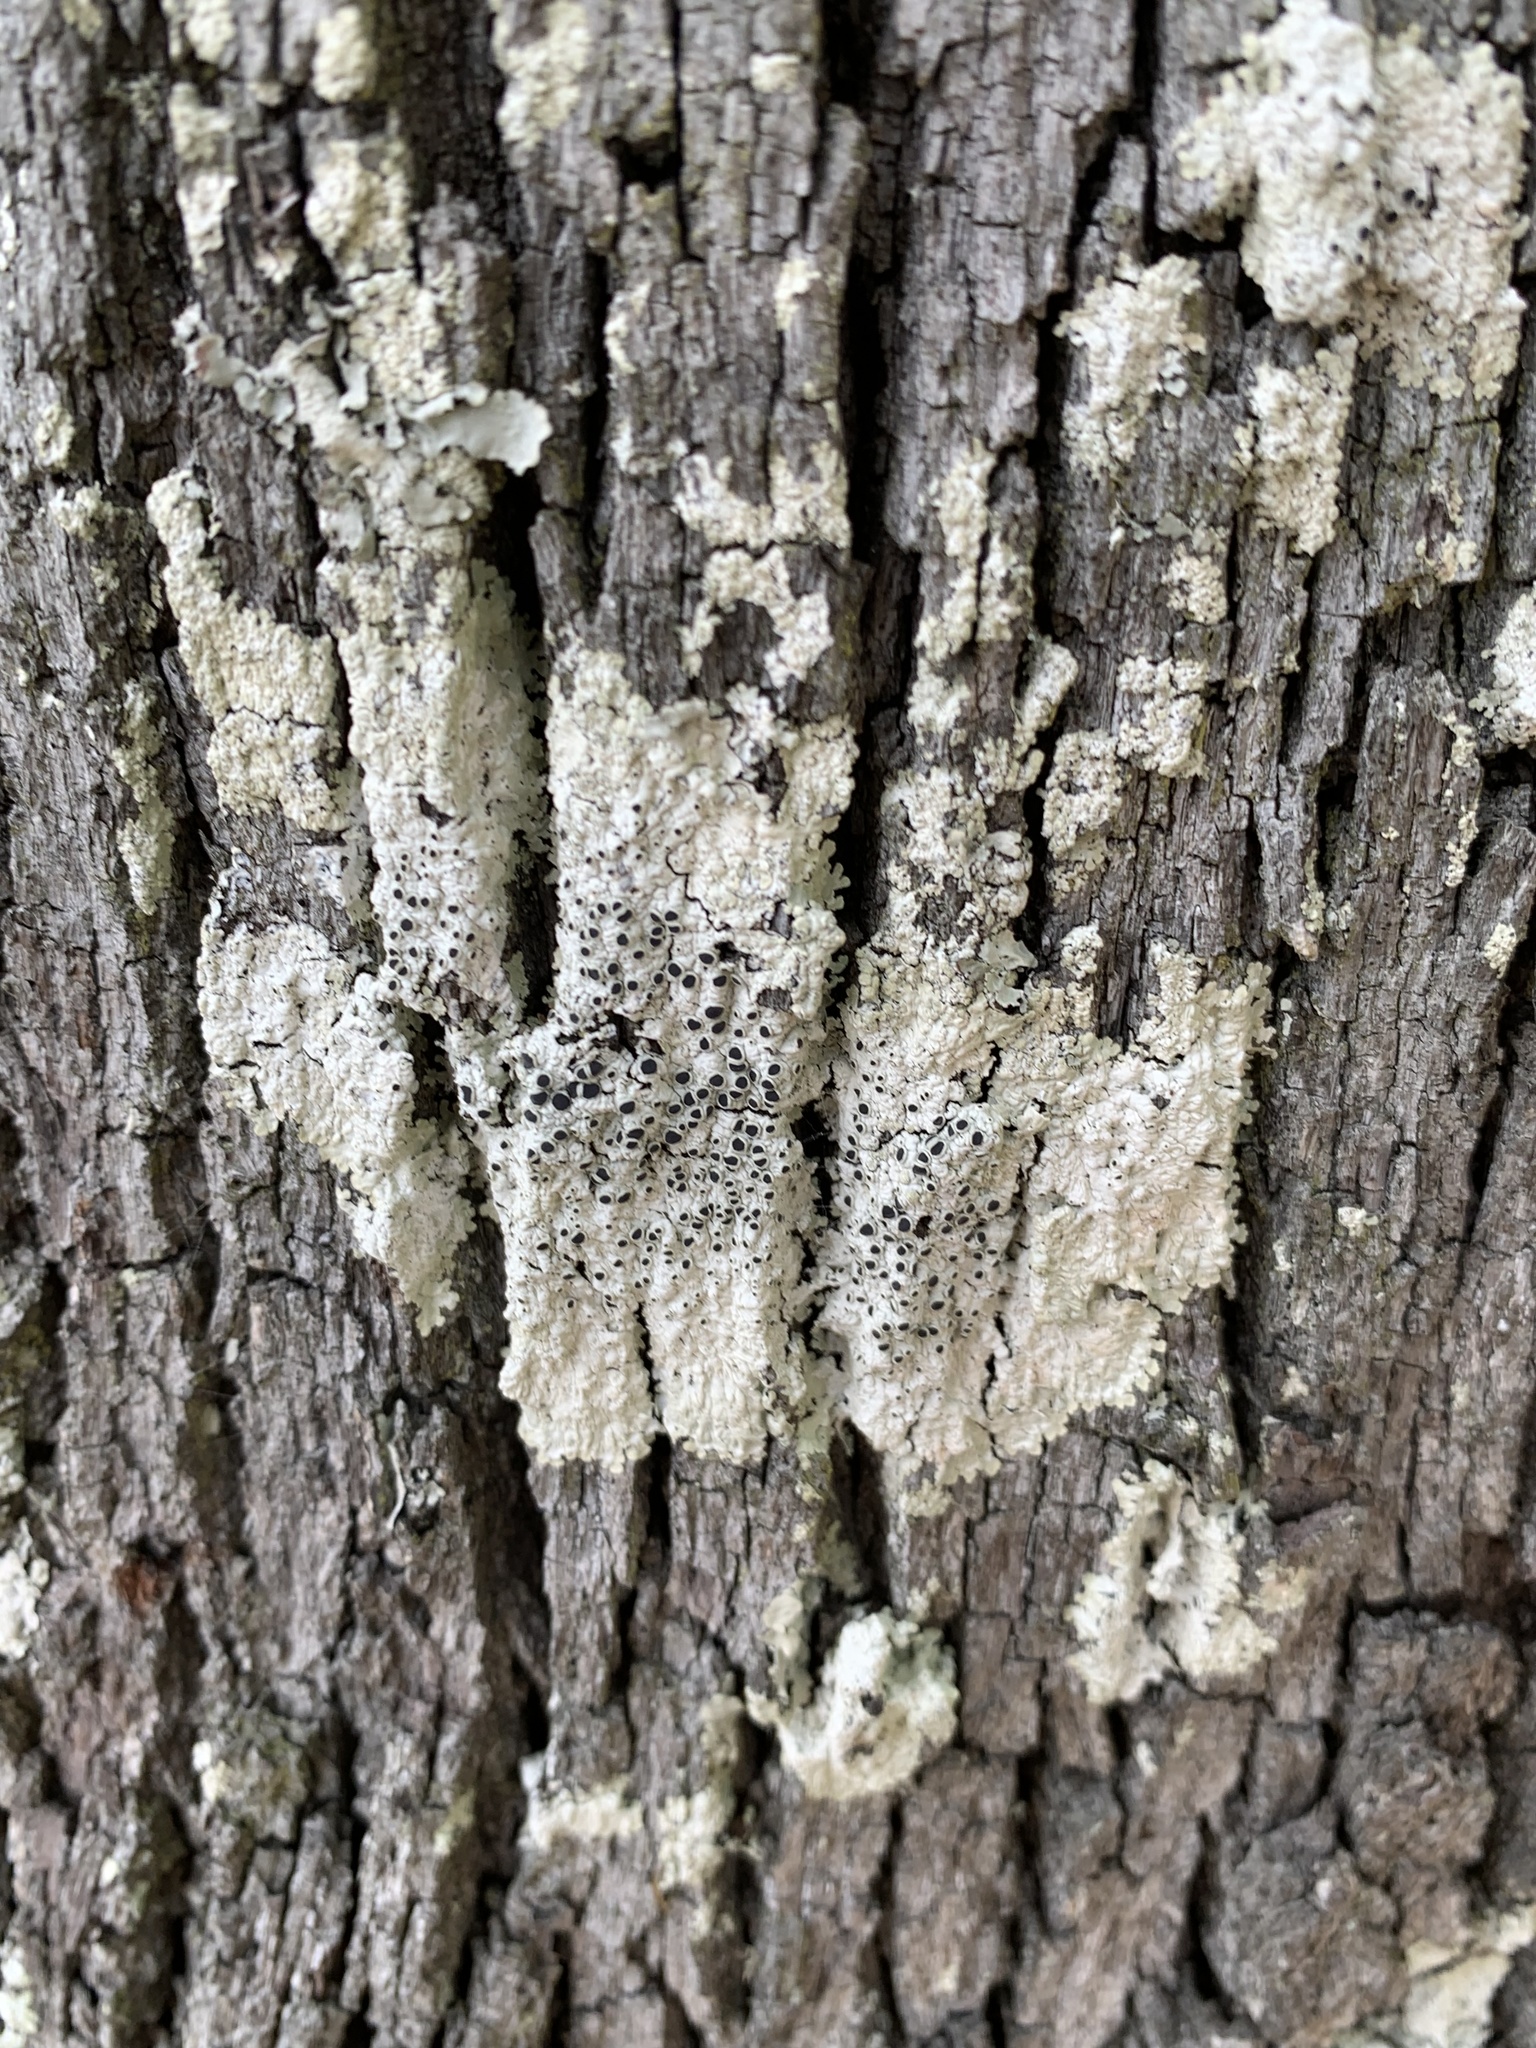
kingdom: Fungi
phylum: Ascomycota
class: Lecanoromycetes
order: Teloschistales
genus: Dirinaria
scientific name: Dirinaria confusa
